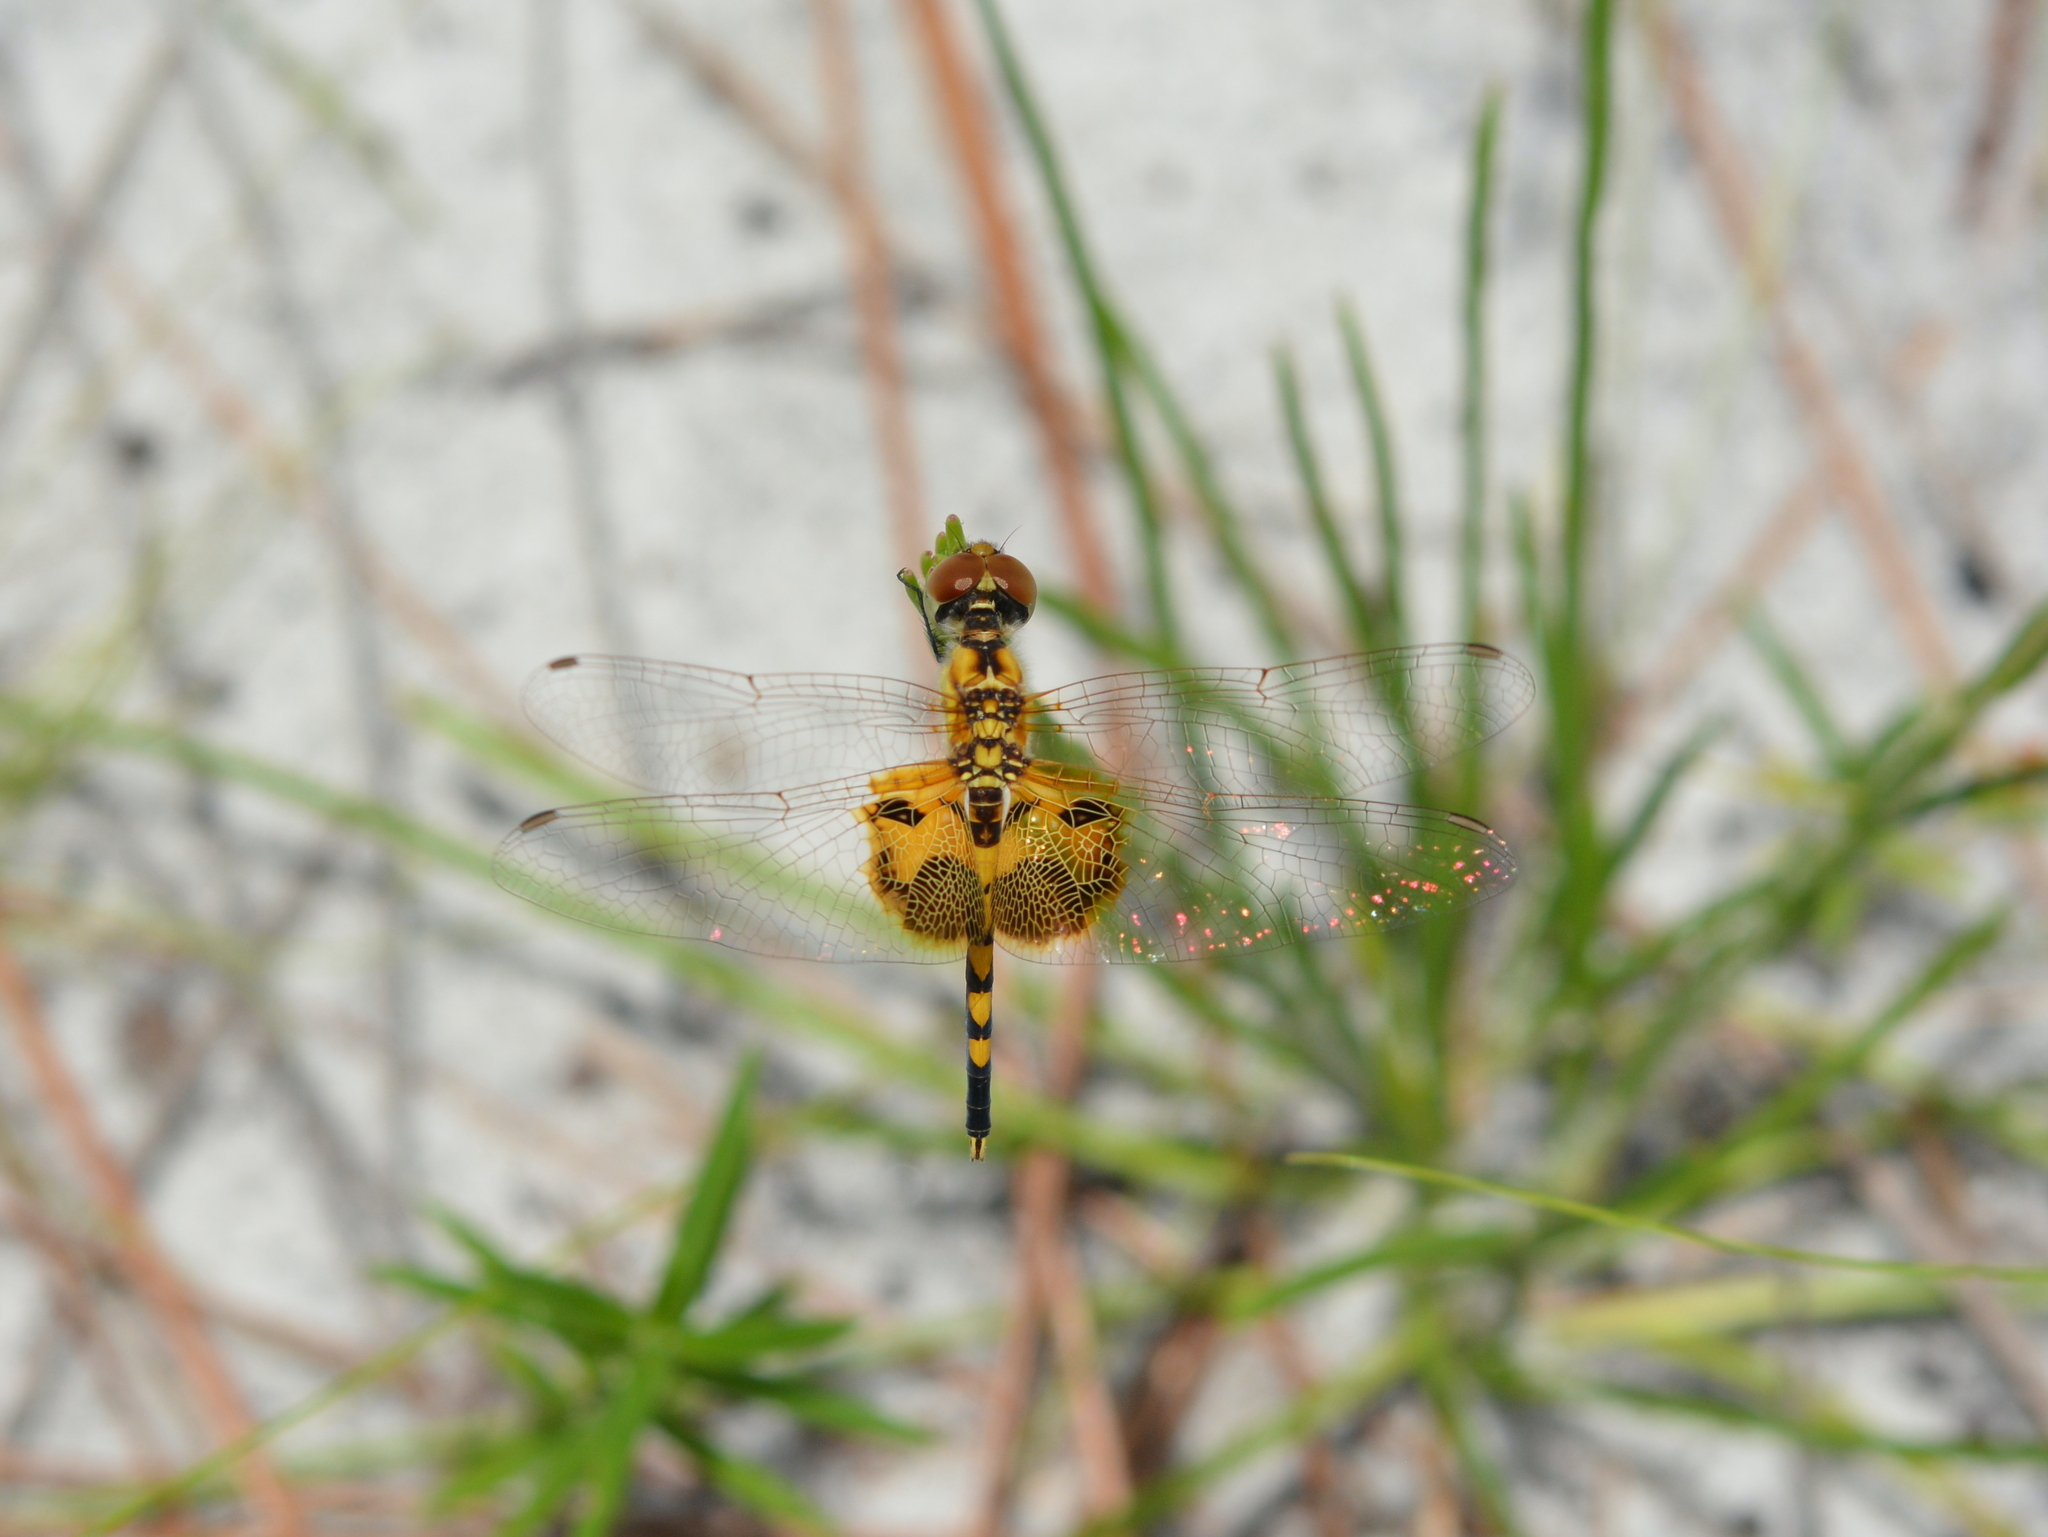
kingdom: Animalia
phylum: Arthropoda
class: Insecta
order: Odonata
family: Libellulidae
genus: Celithemis
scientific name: Celithemis amanda
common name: Amanda's pennant
